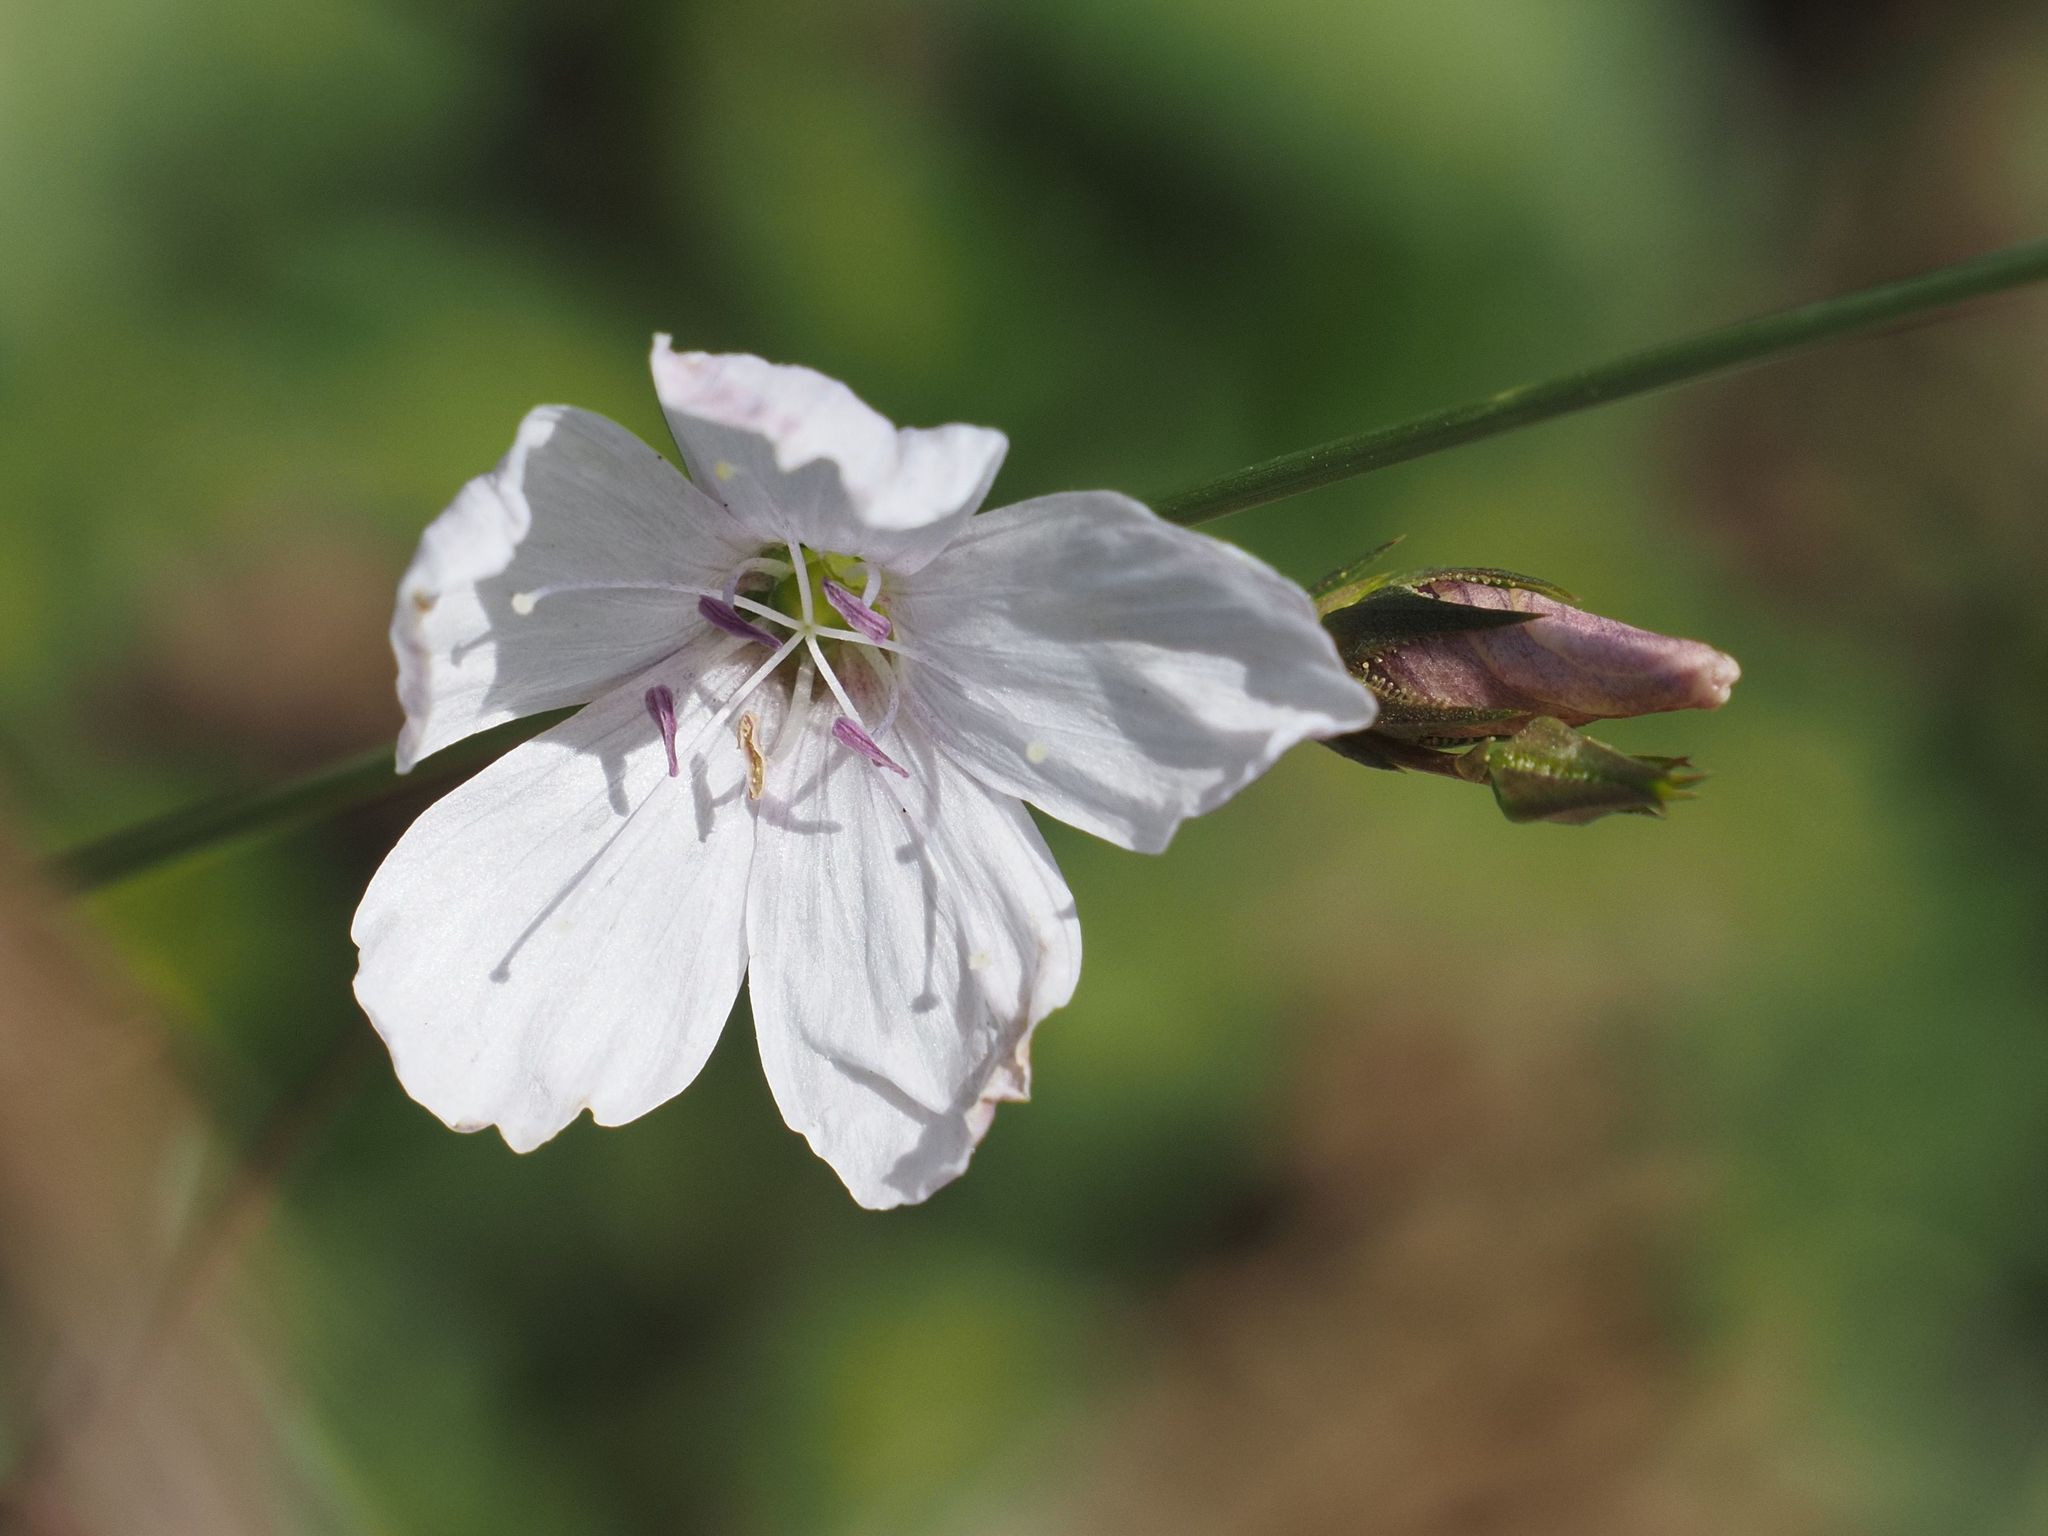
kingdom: Plantae
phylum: Tracheophyta
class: Magnoliopsida
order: Malpighiales
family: Linaceae
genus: Linum
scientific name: Linum tenuifolium
